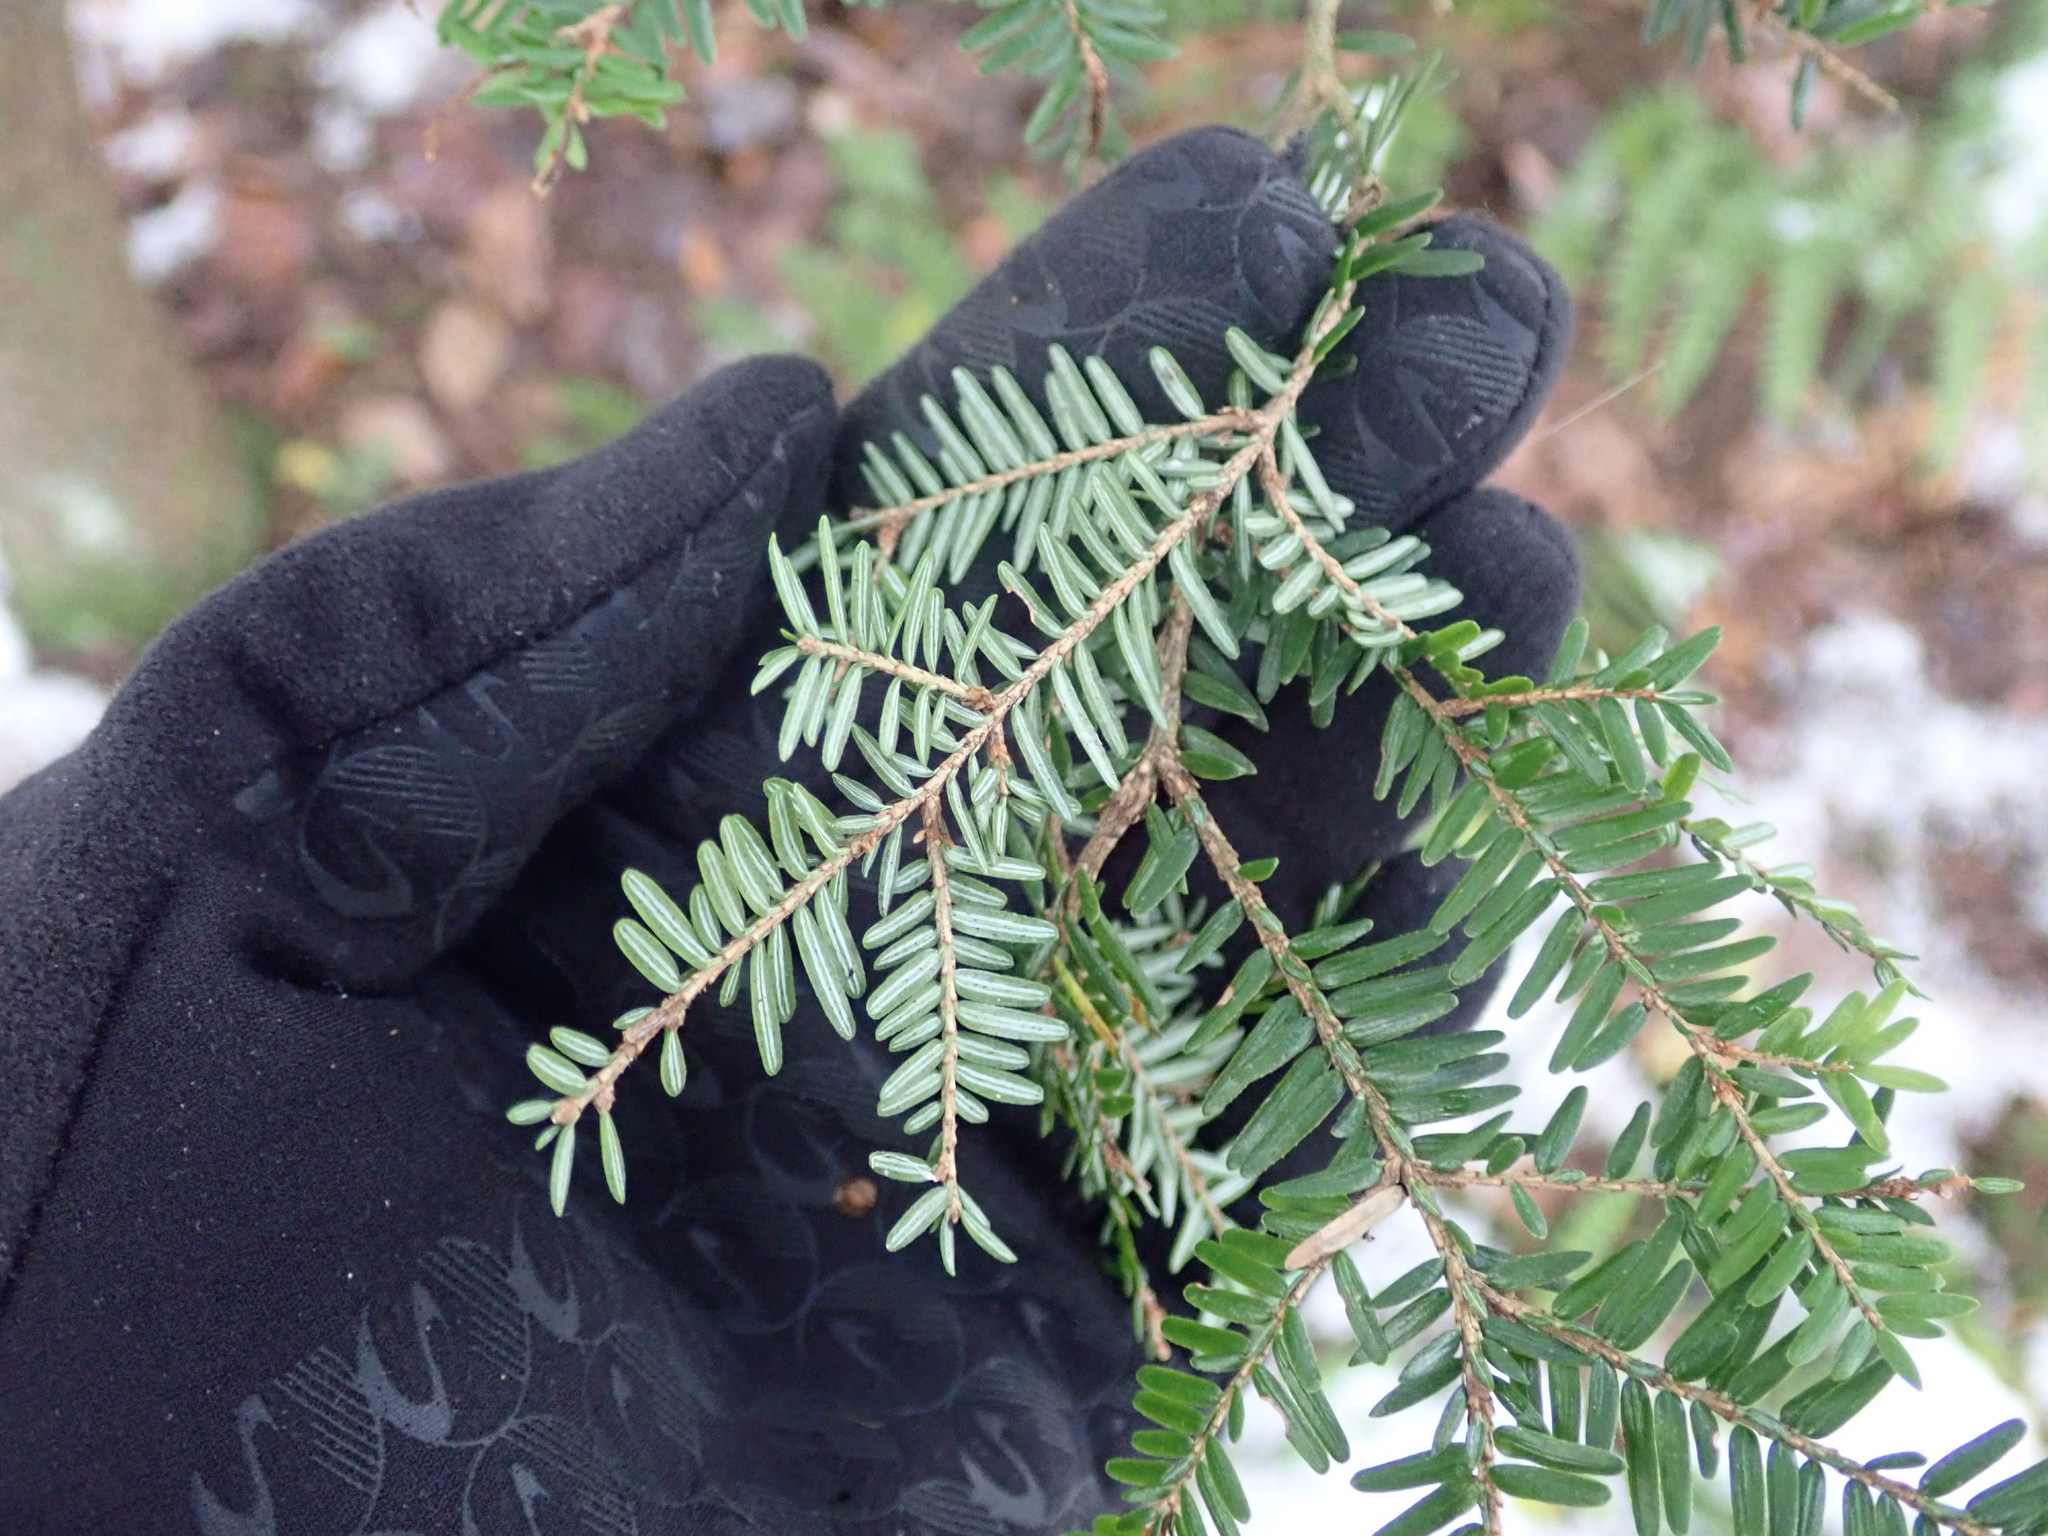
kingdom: Plantae
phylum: Tracheophyta
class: Pinopsida
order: Pinales
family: Pinaceae
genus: Tsuga
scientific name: Tsuga canadensis
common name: Eastern hemlock
